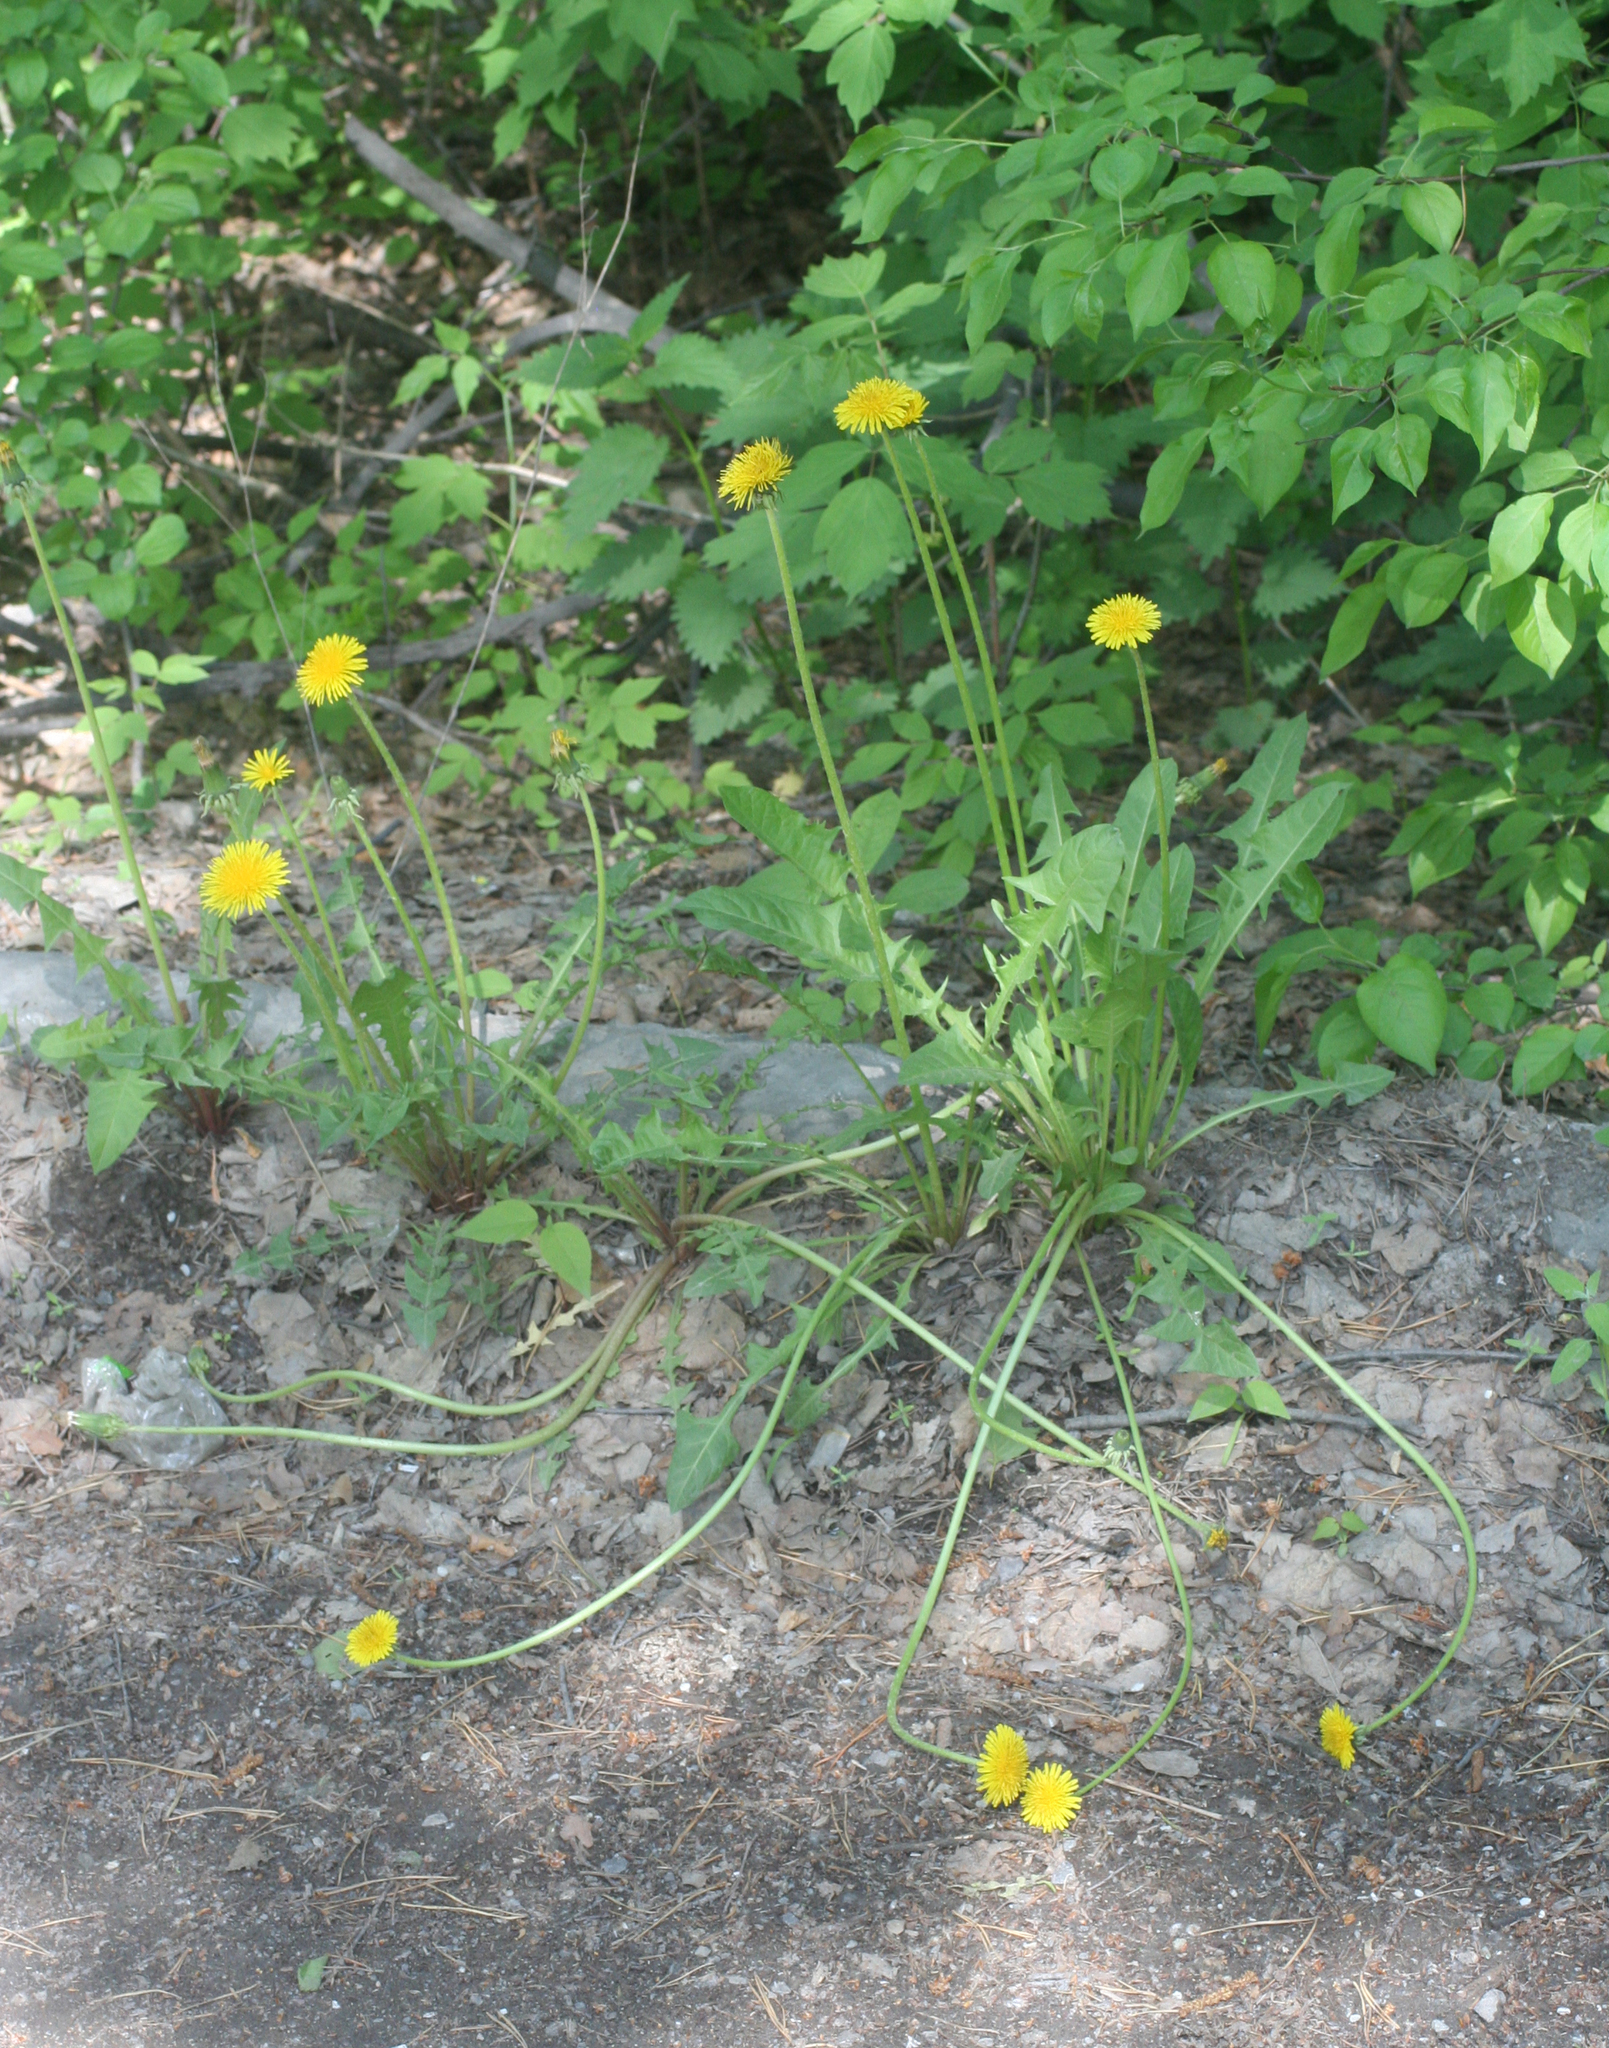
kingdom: Plantae
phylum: Tracheophyta
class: Magnoliopsida
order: Asterales
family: Asteraceae
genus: Taraxacum
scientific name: Taraxacum officinale
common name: Common dandelion
